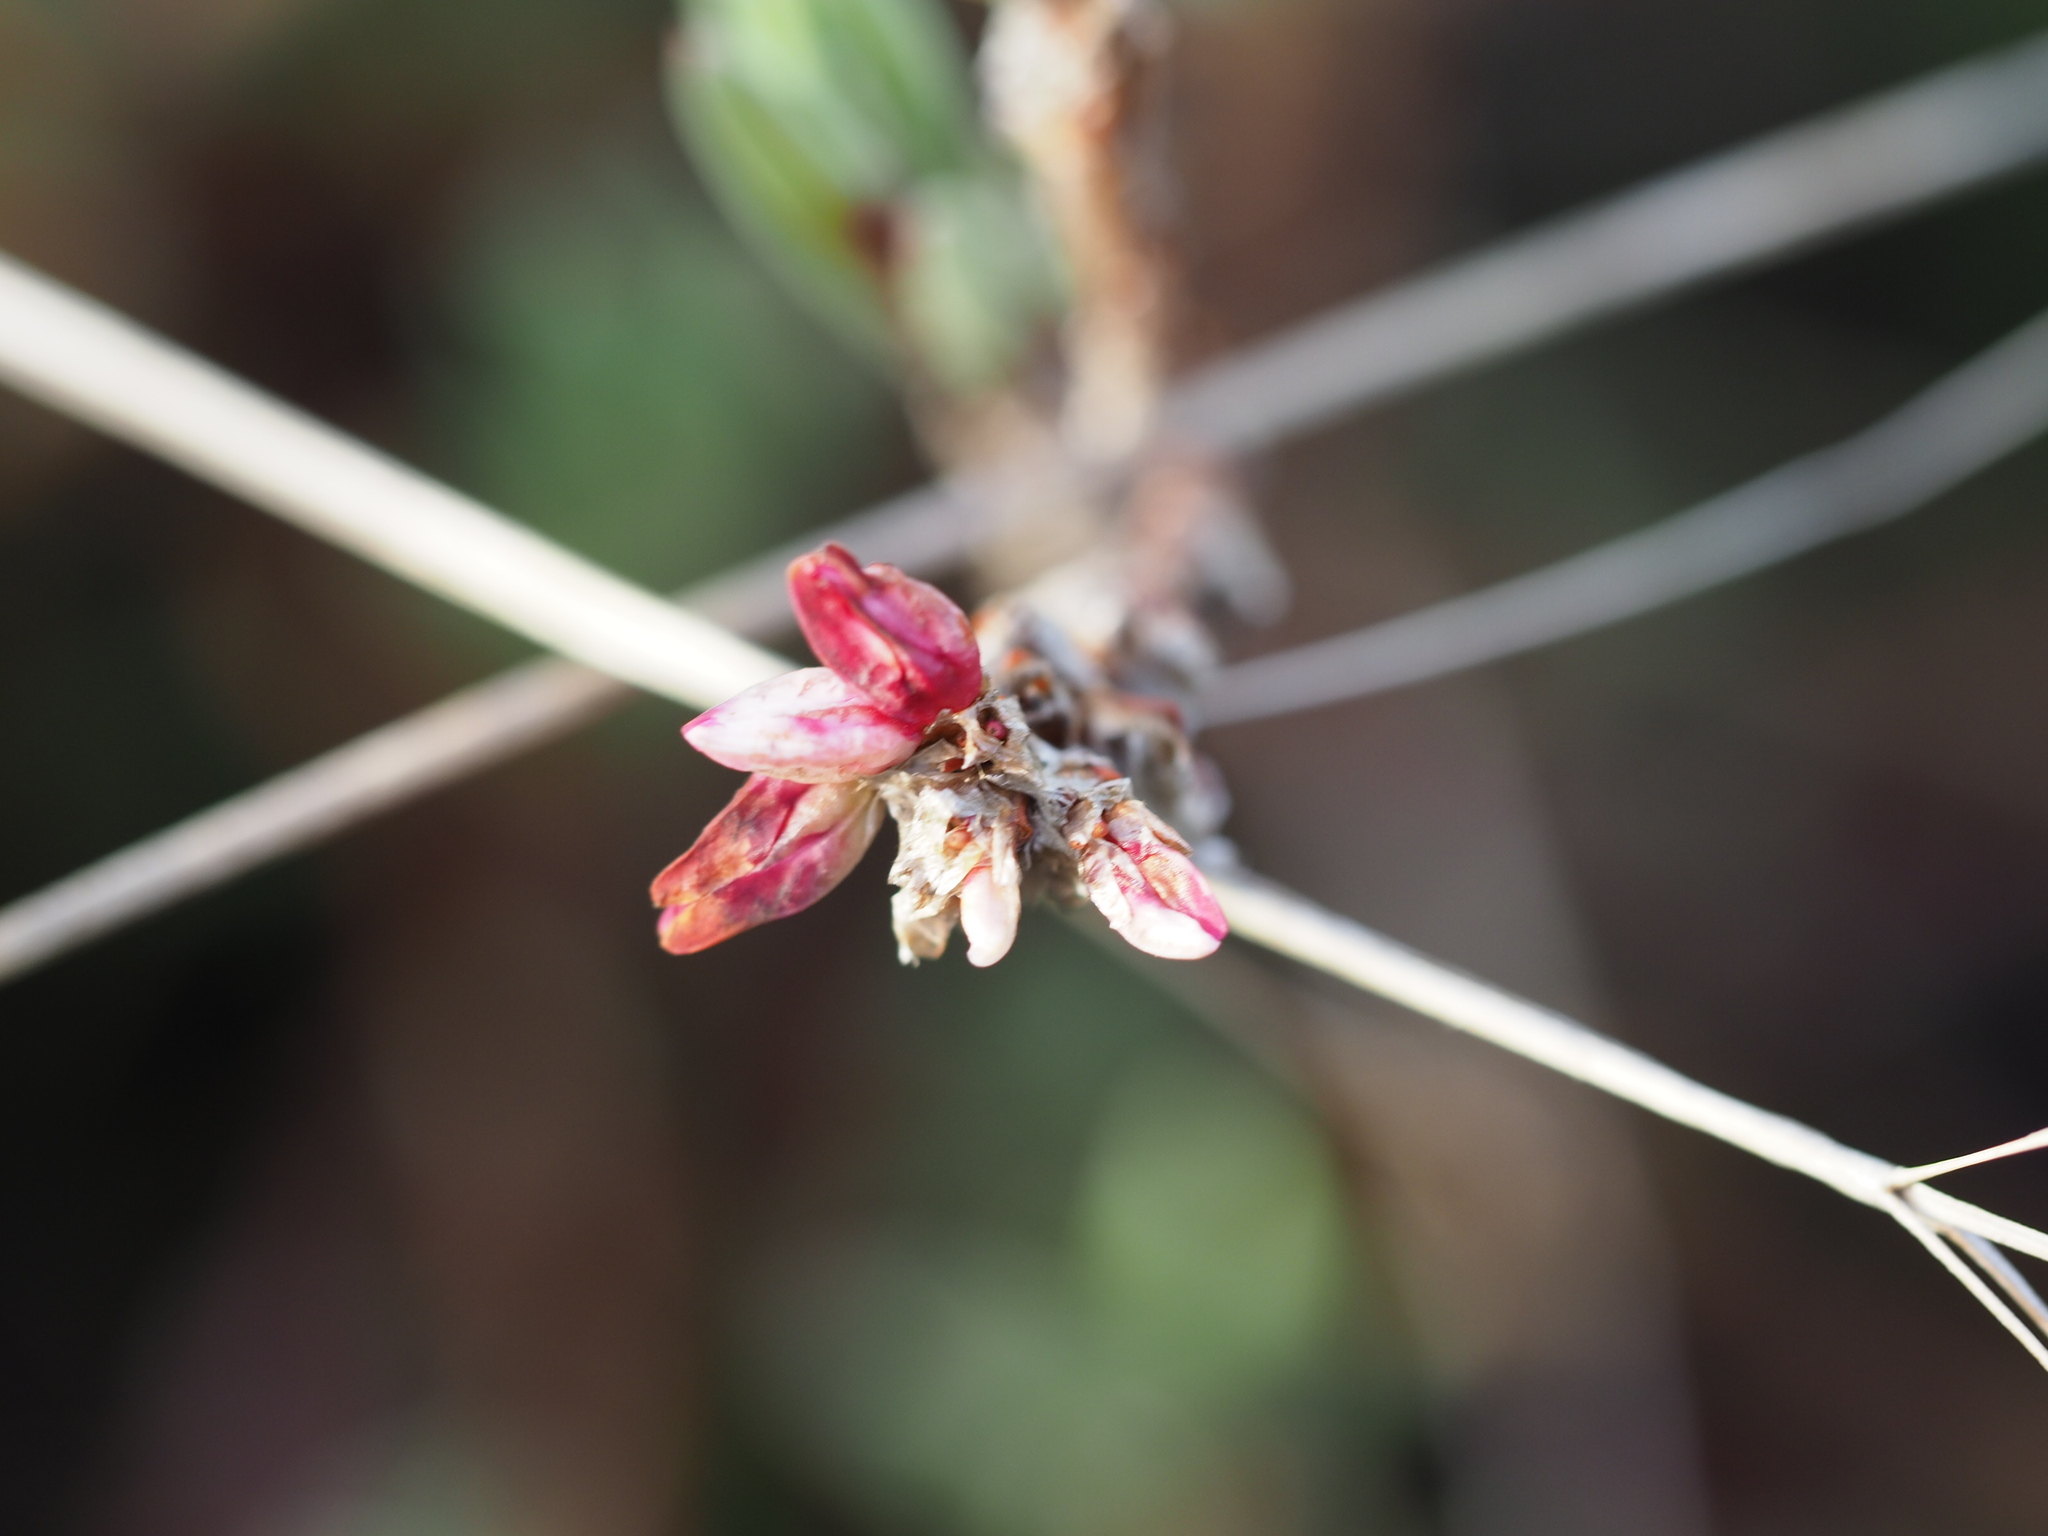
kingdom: Plantae
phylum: Tracheophyta
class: Magnoliopsida
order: Caryophyllales
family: Polygonaceae
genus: Polygonum
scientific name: Polygonum paronychia
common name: Dune knotweed
